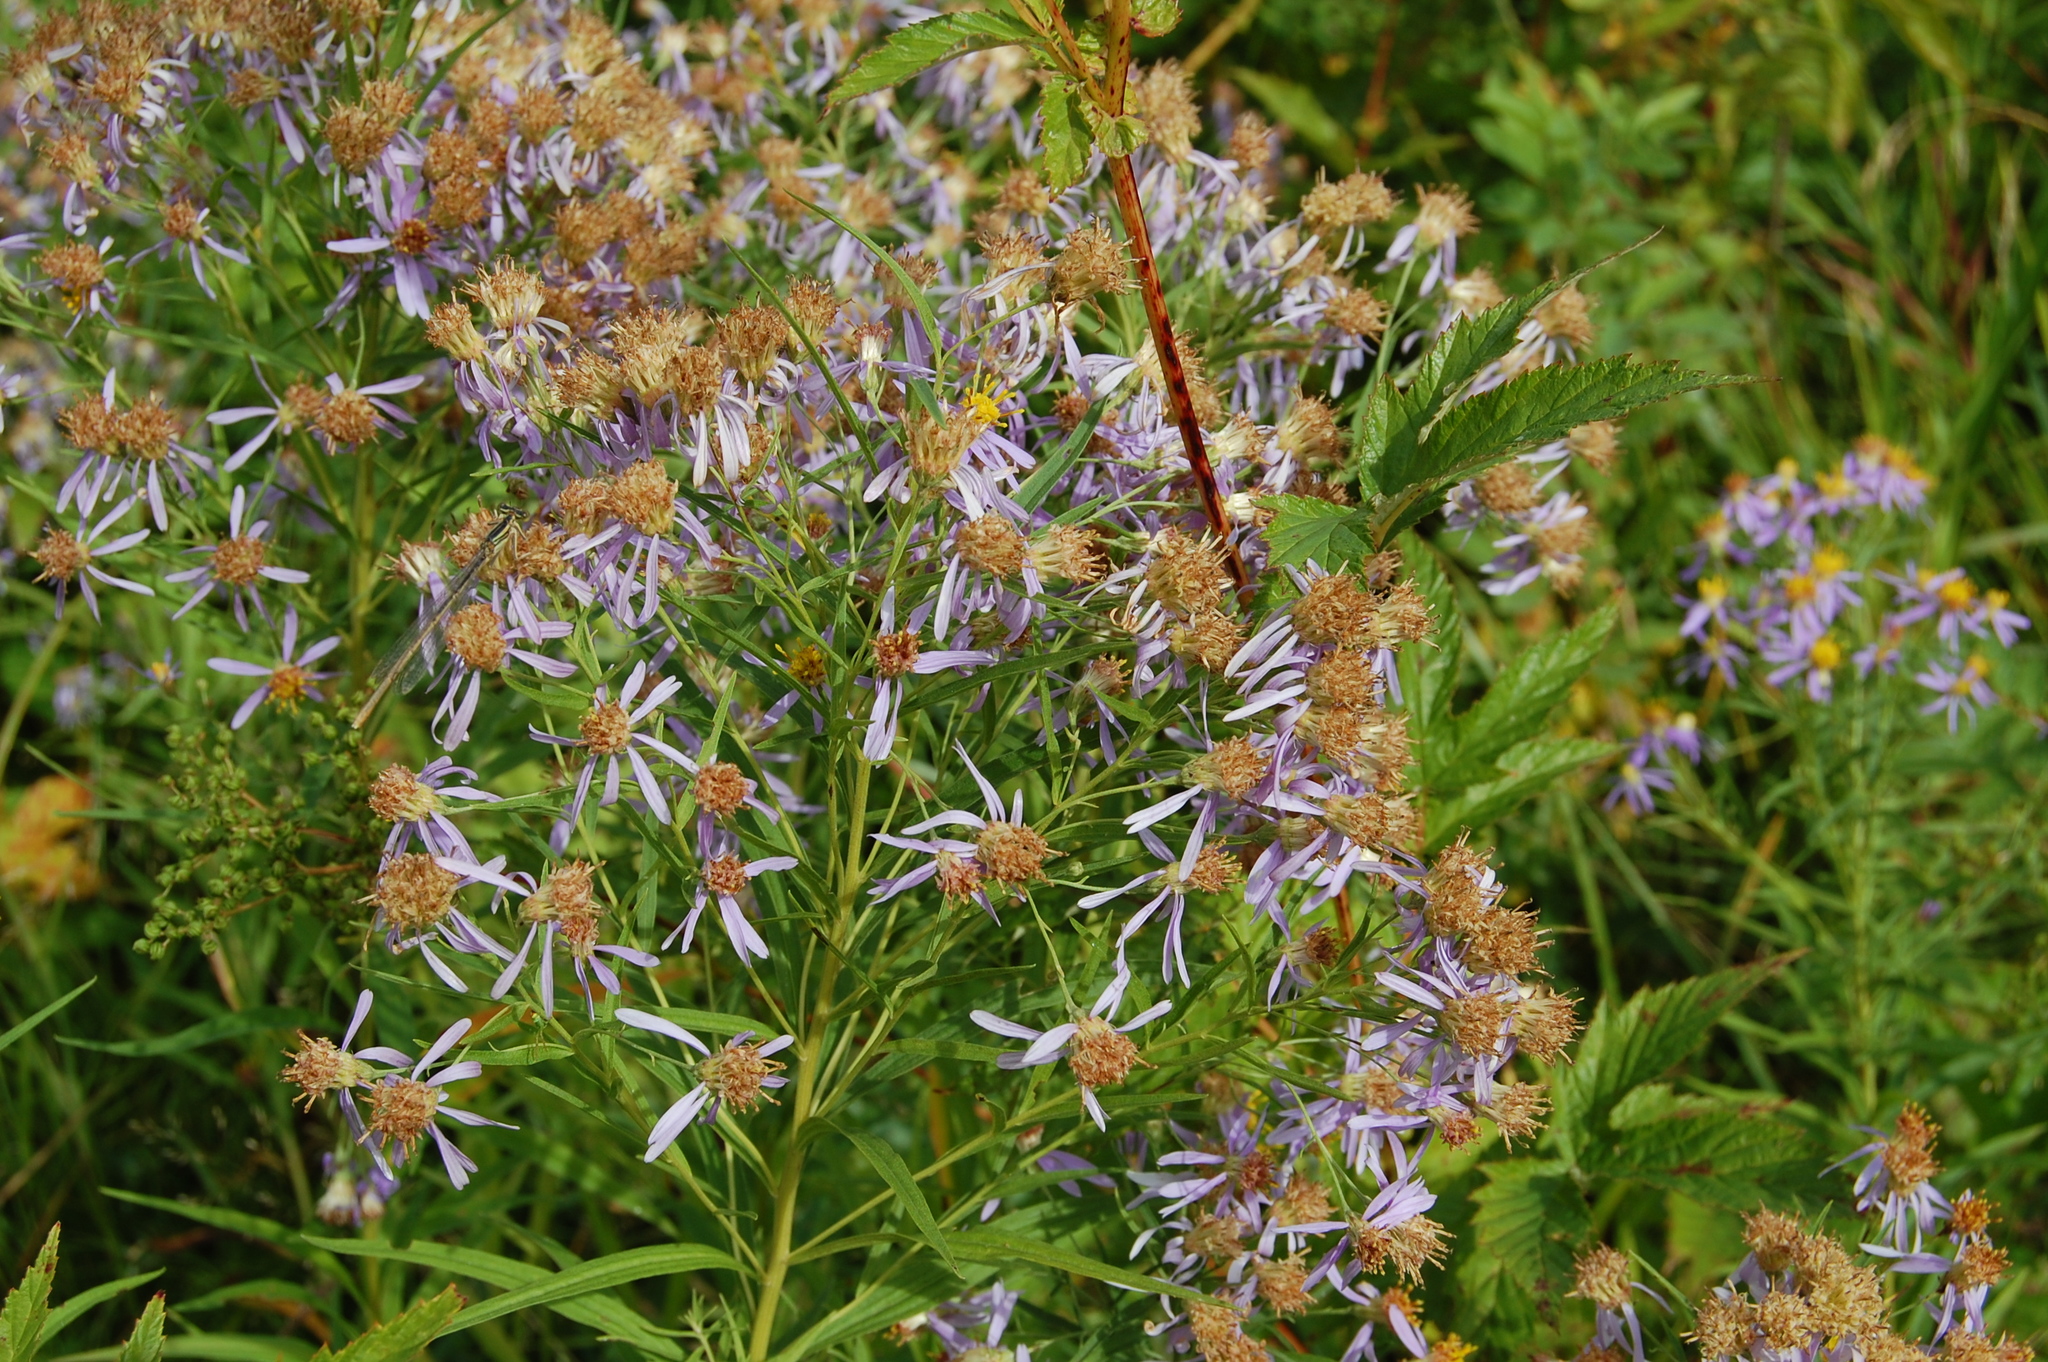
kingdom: Plantae
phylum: Tracheophyta
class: Magnoliopsida
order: Asterales
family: Asteraceae
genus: Galatella
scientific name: Galatella sedifolia
